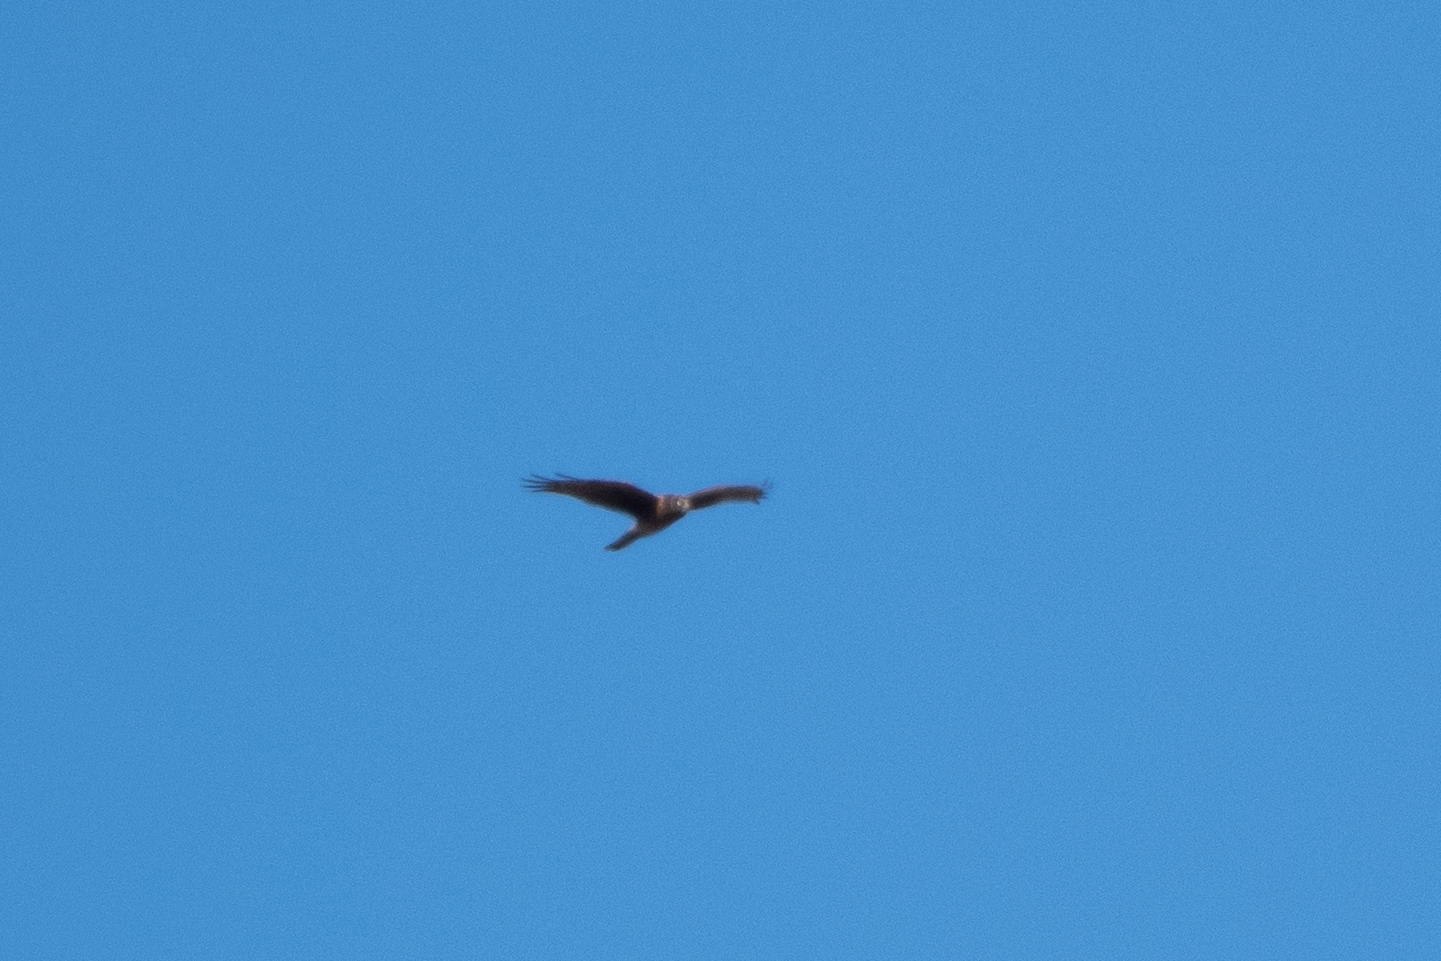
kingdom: Animalia
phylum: Chordata
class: Aves
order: Accipitriformes
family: Accipitridae
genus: Circus
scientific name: Circus cyaneus
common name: Hen harrier
